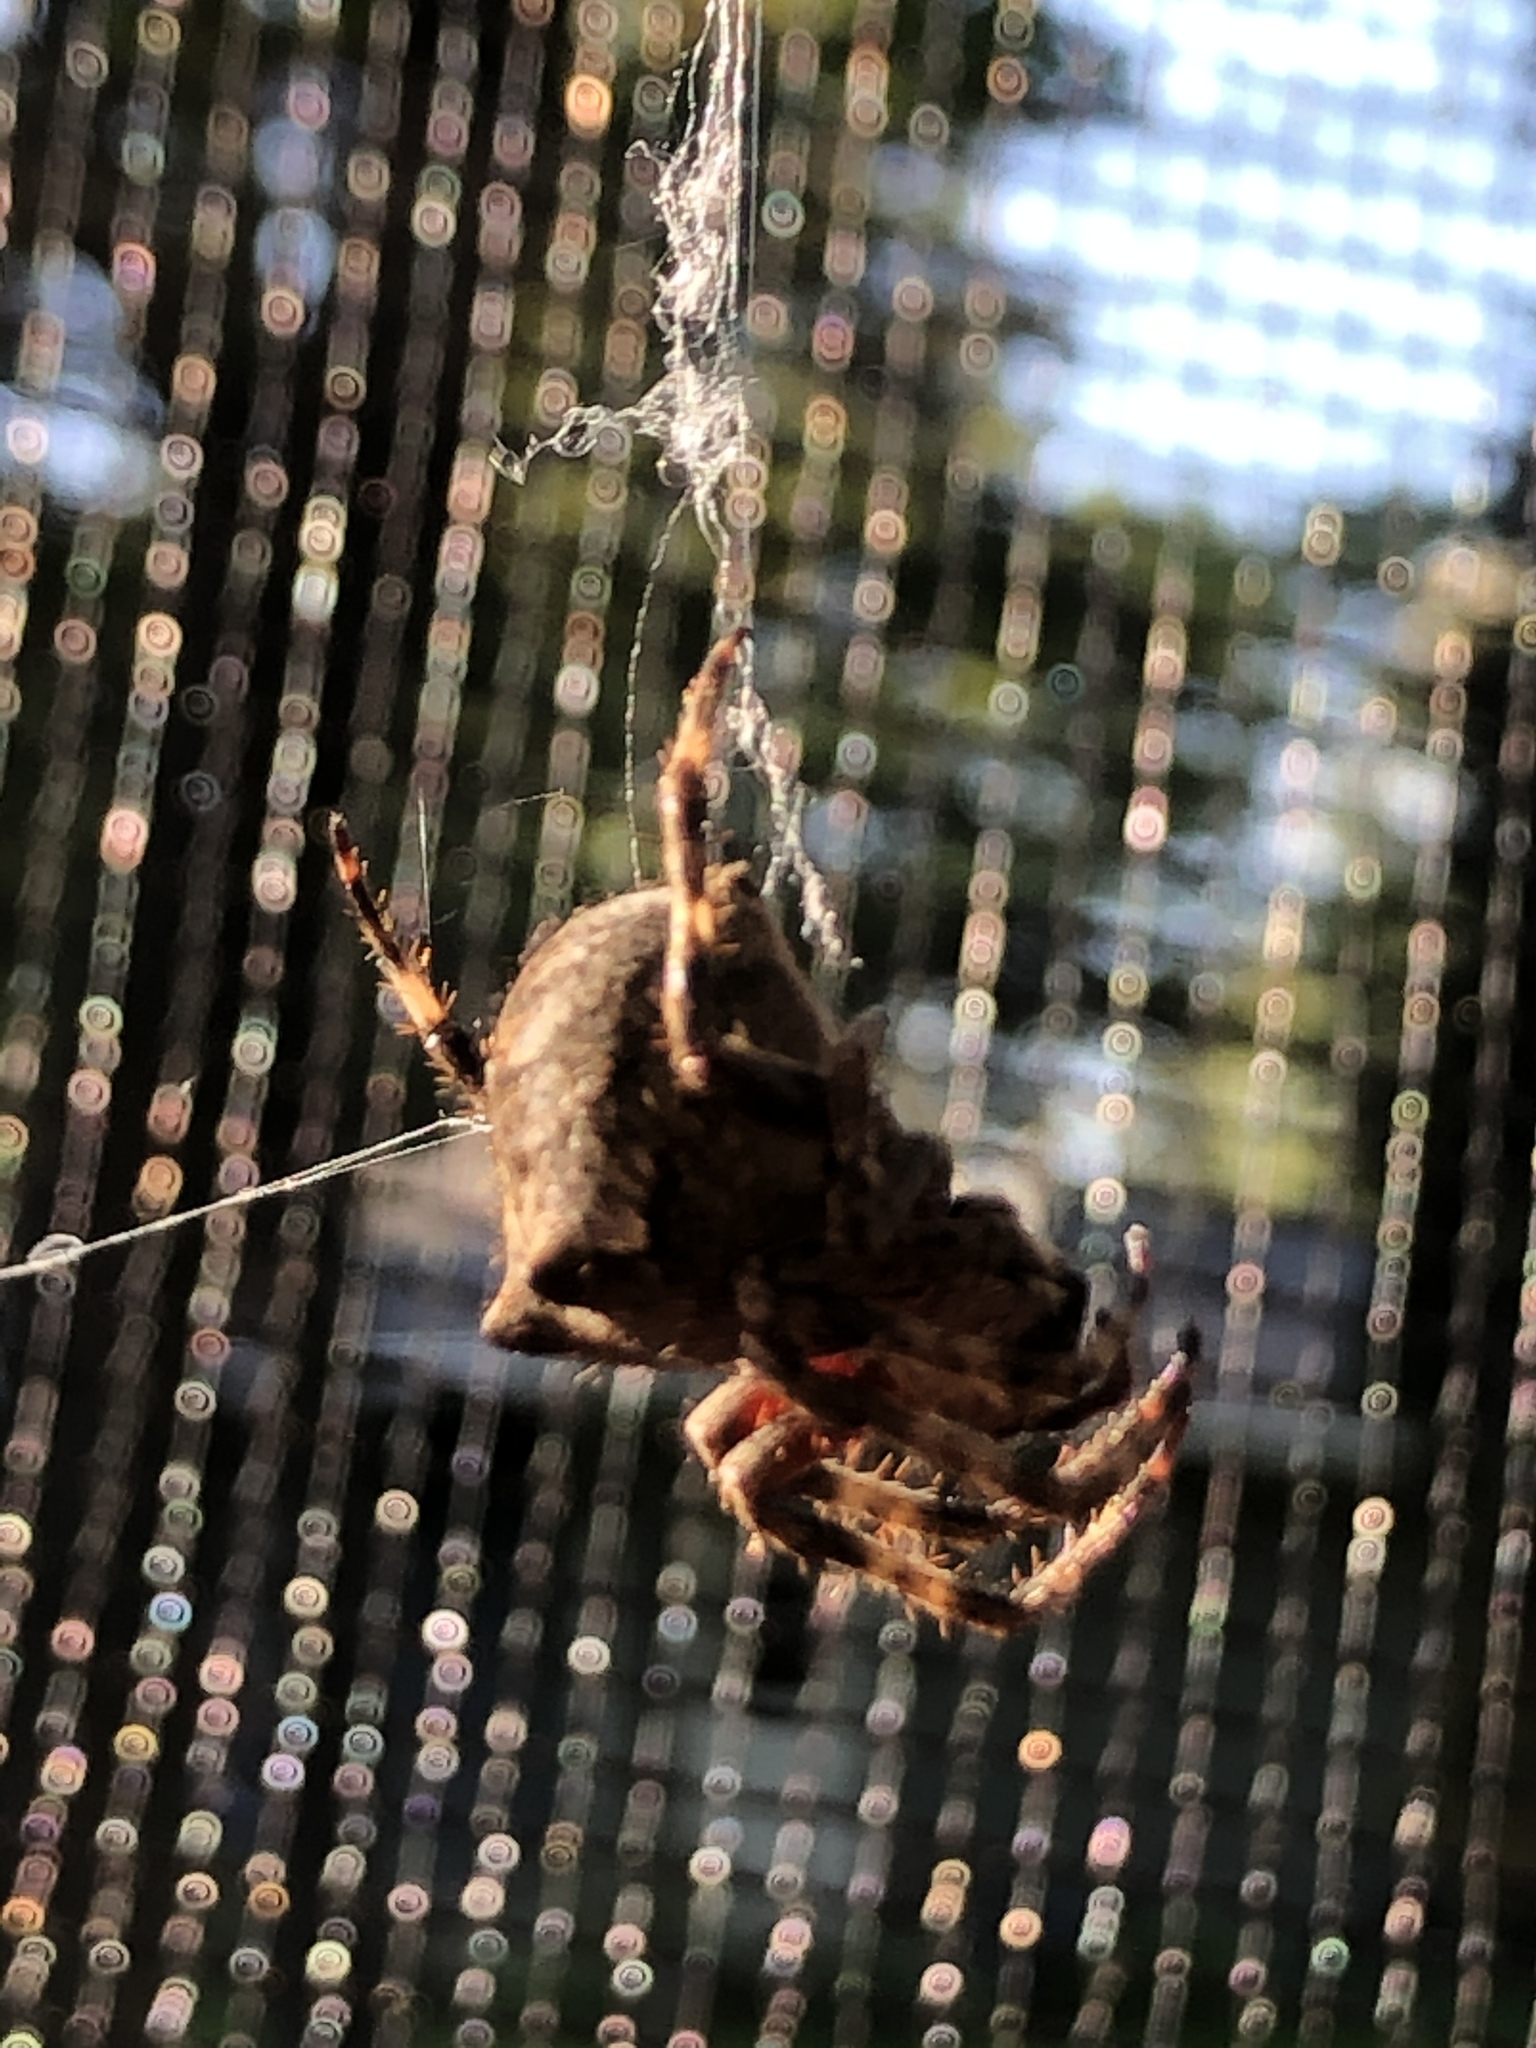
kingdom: Animalia
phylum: Arthropoda
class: Arachnida
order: Araneae
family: Araneidae
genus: Araneus
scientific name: Araneus saevus
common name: Fierce orbweaver
